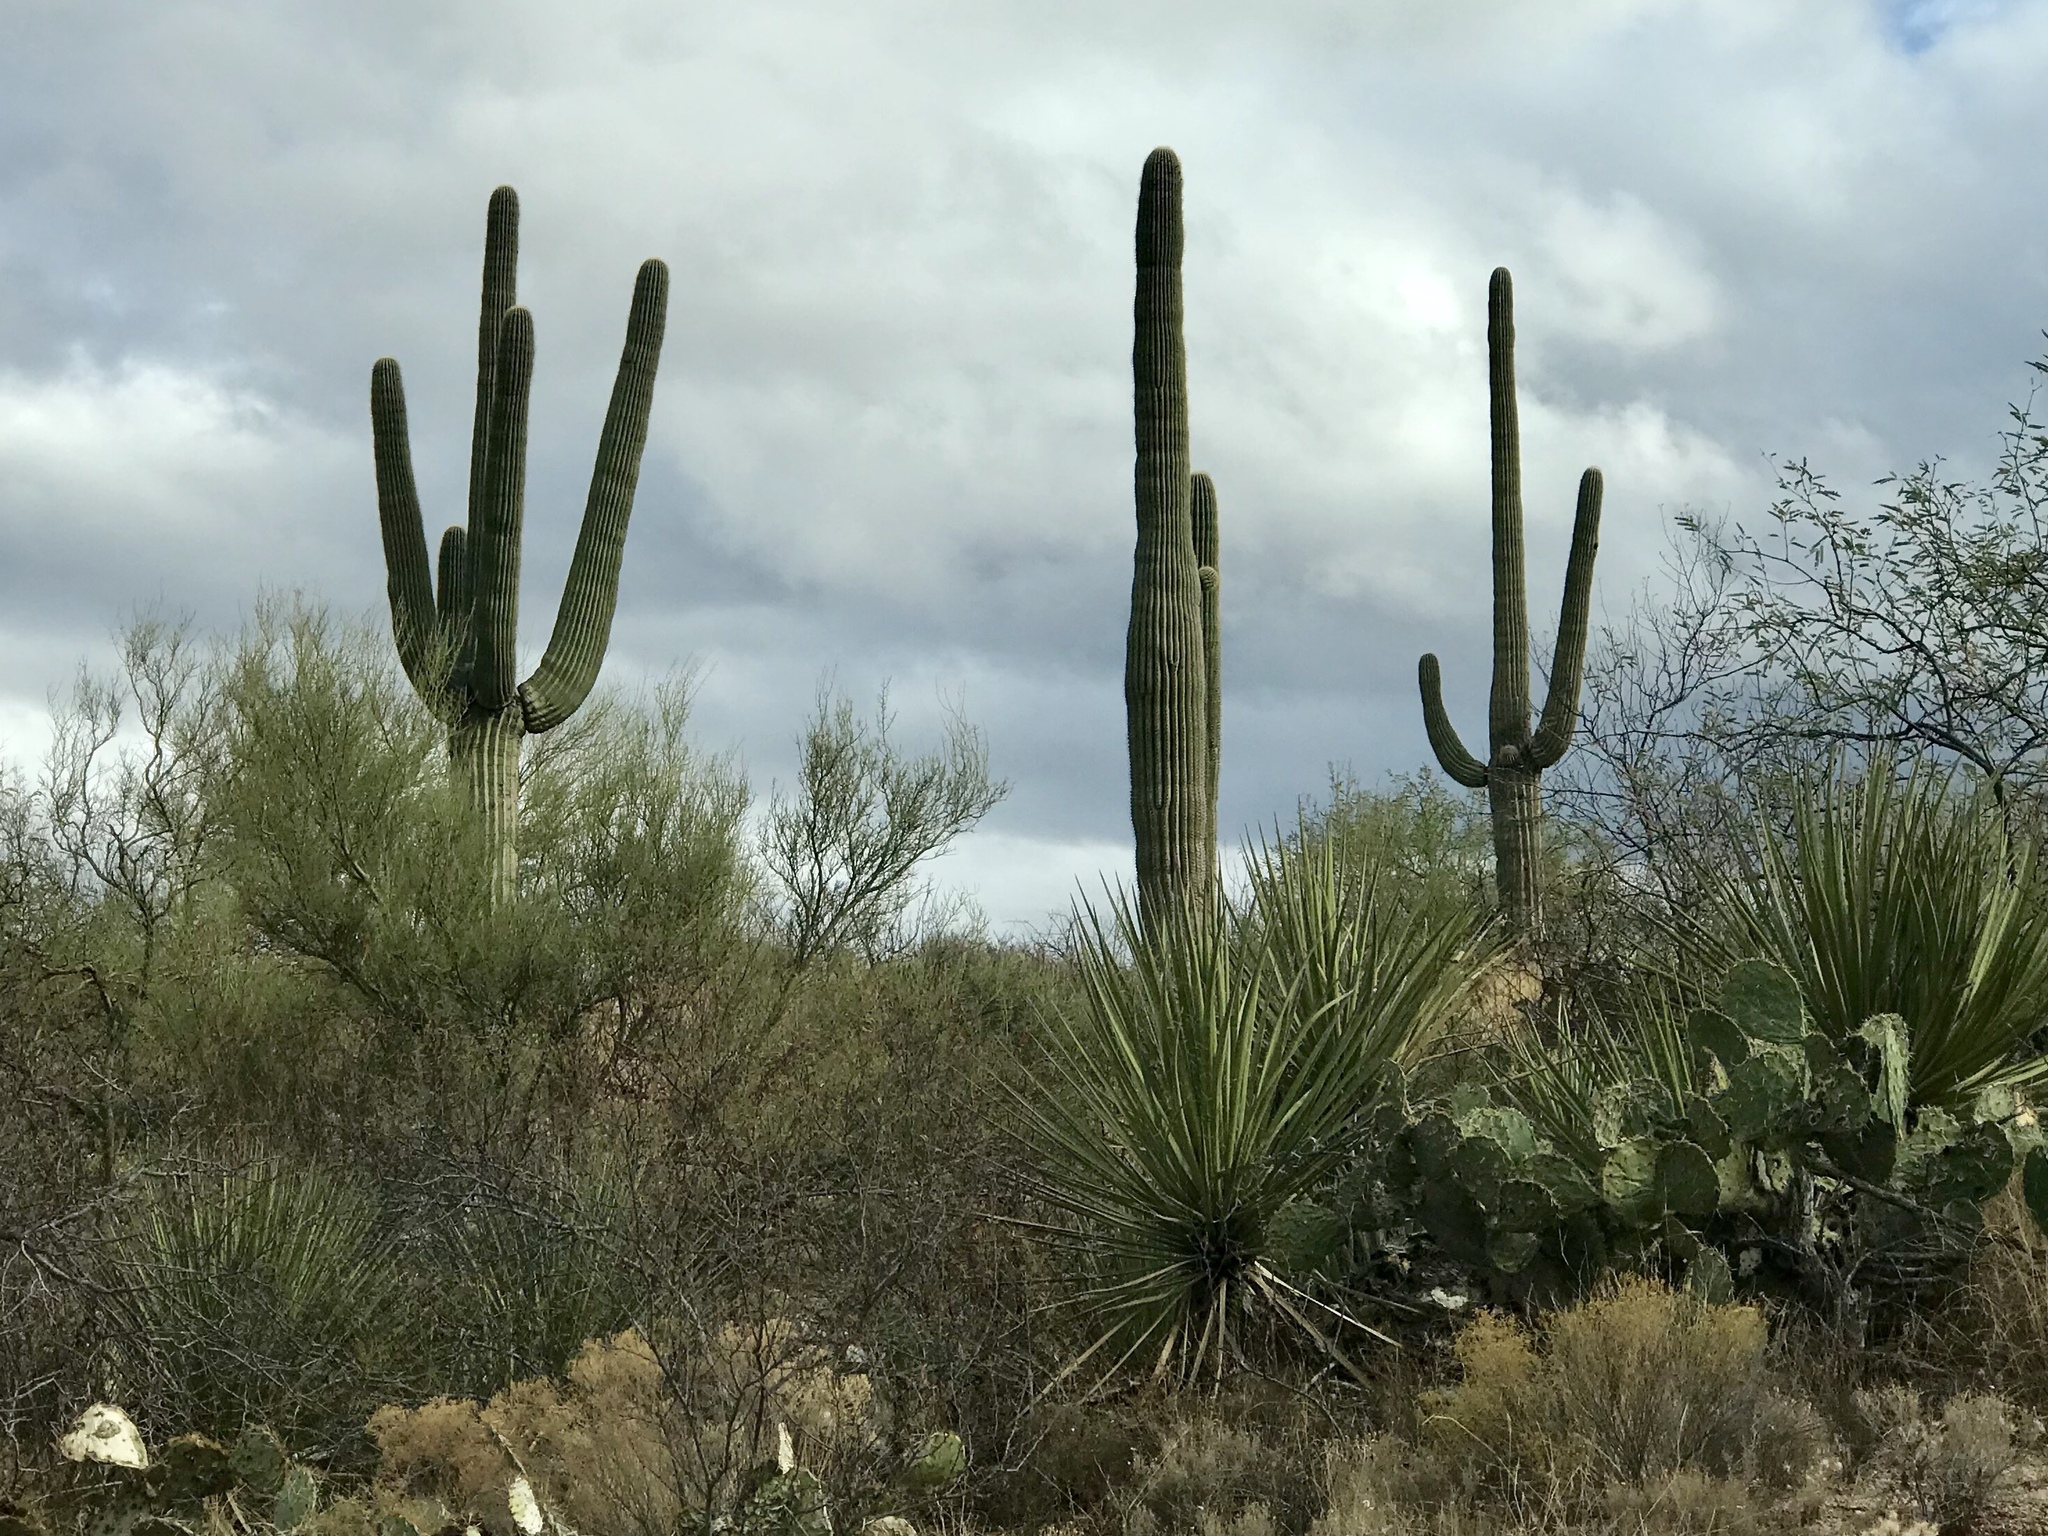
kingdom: Plantae
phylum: Tracheophyta
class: Magnoliopsida
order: Caryophyllales
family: Cactaceae
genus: Carnegiea
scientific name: Carnegiea gigantea
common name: Saguaro
